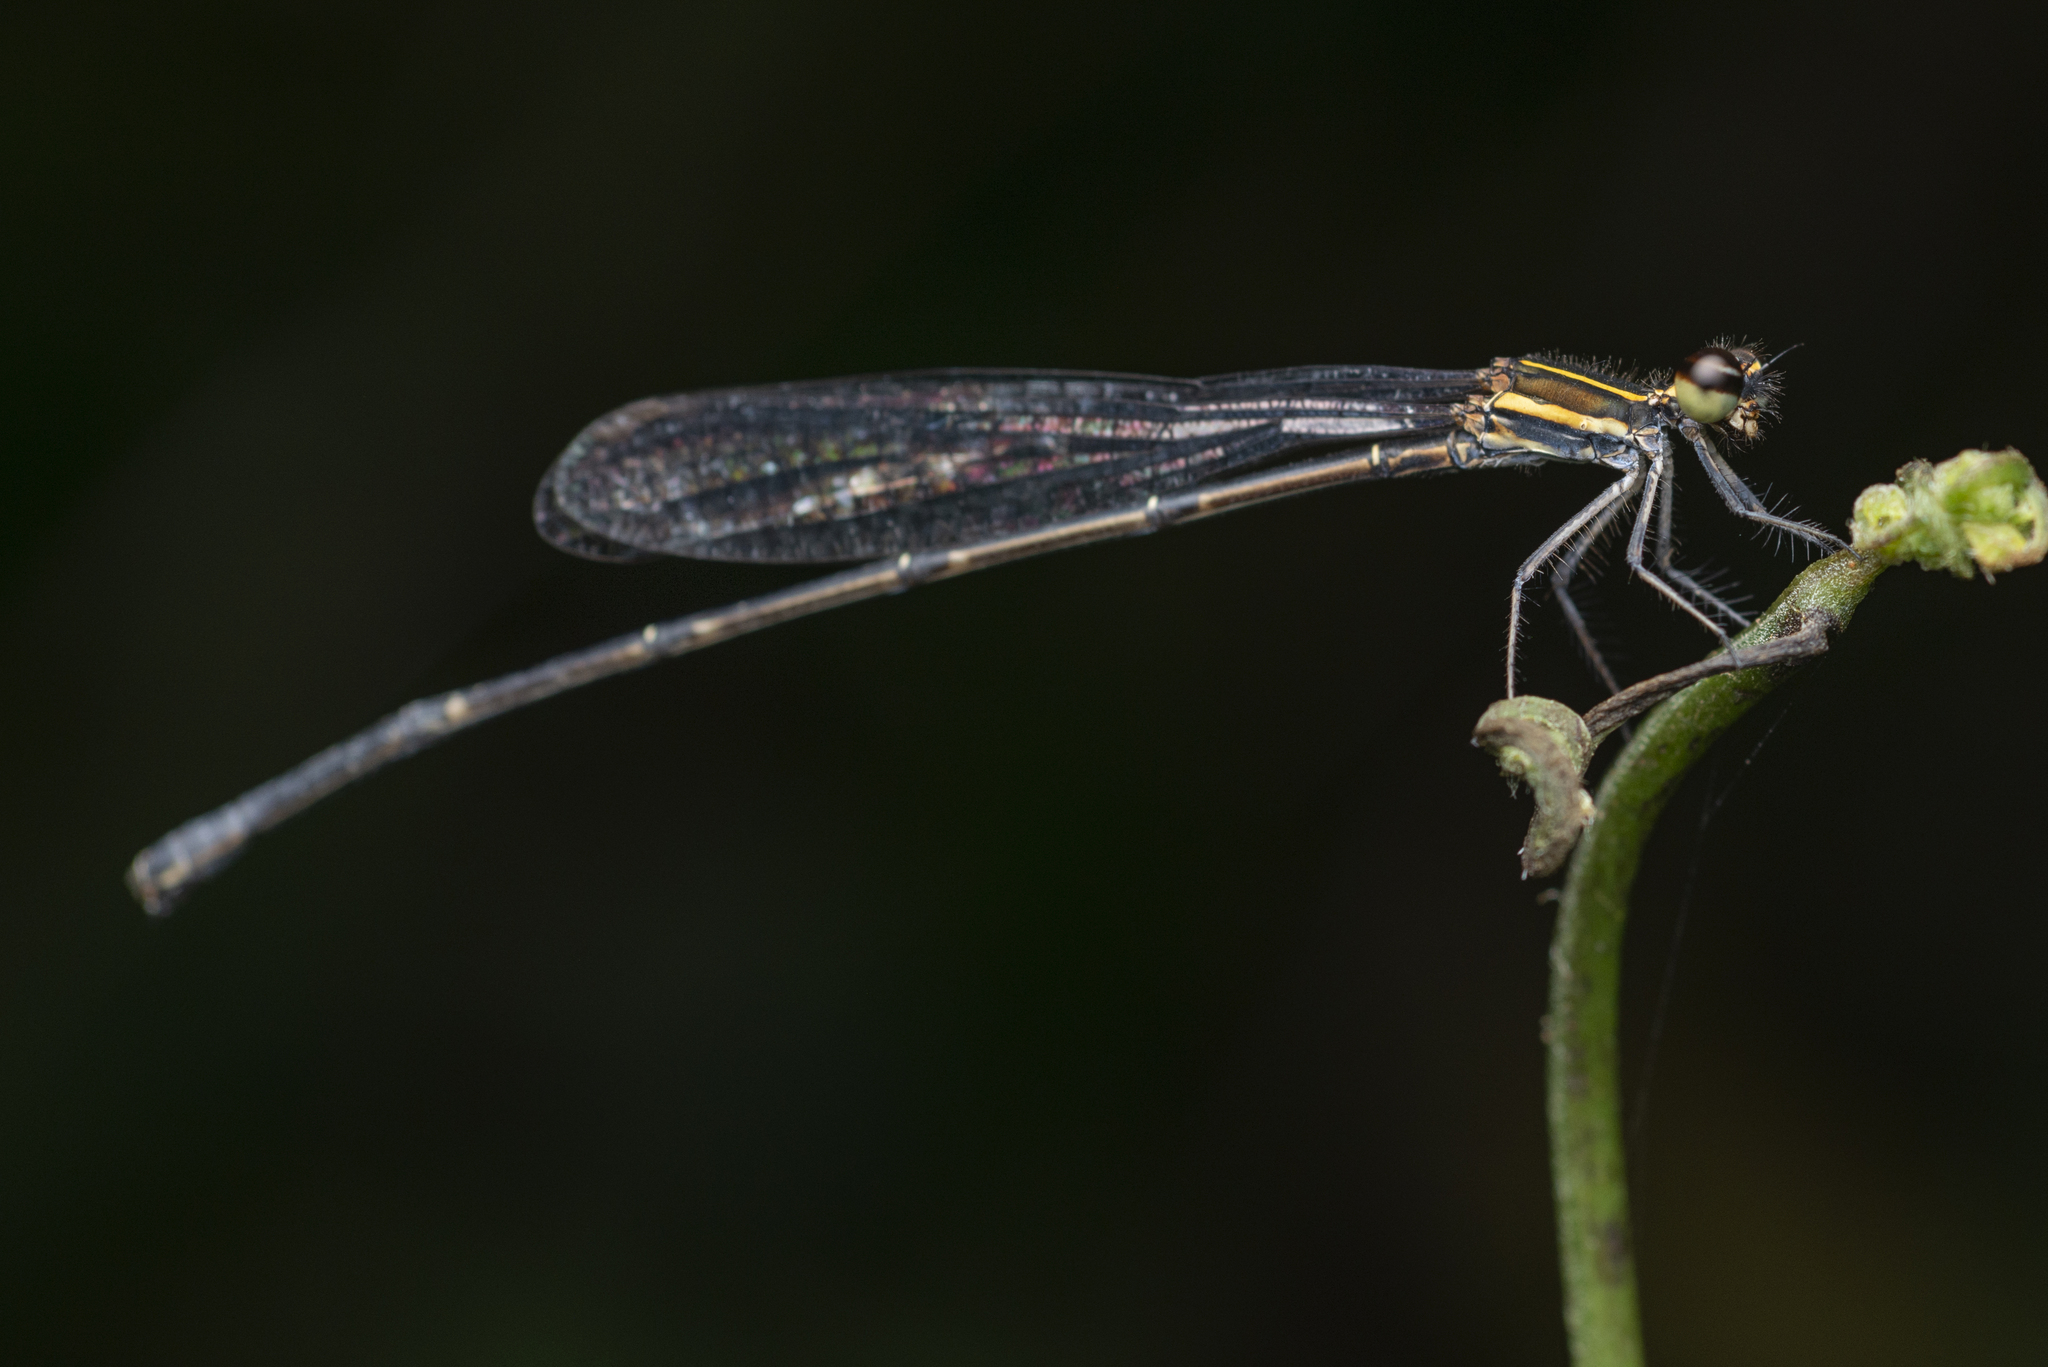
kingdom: Animalia
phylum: Arthropoda
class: Insecta
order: Odonata
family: Platycnemididae
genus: Prodasineura
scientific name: Prodasineura autumnalis
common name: Black threadtail
